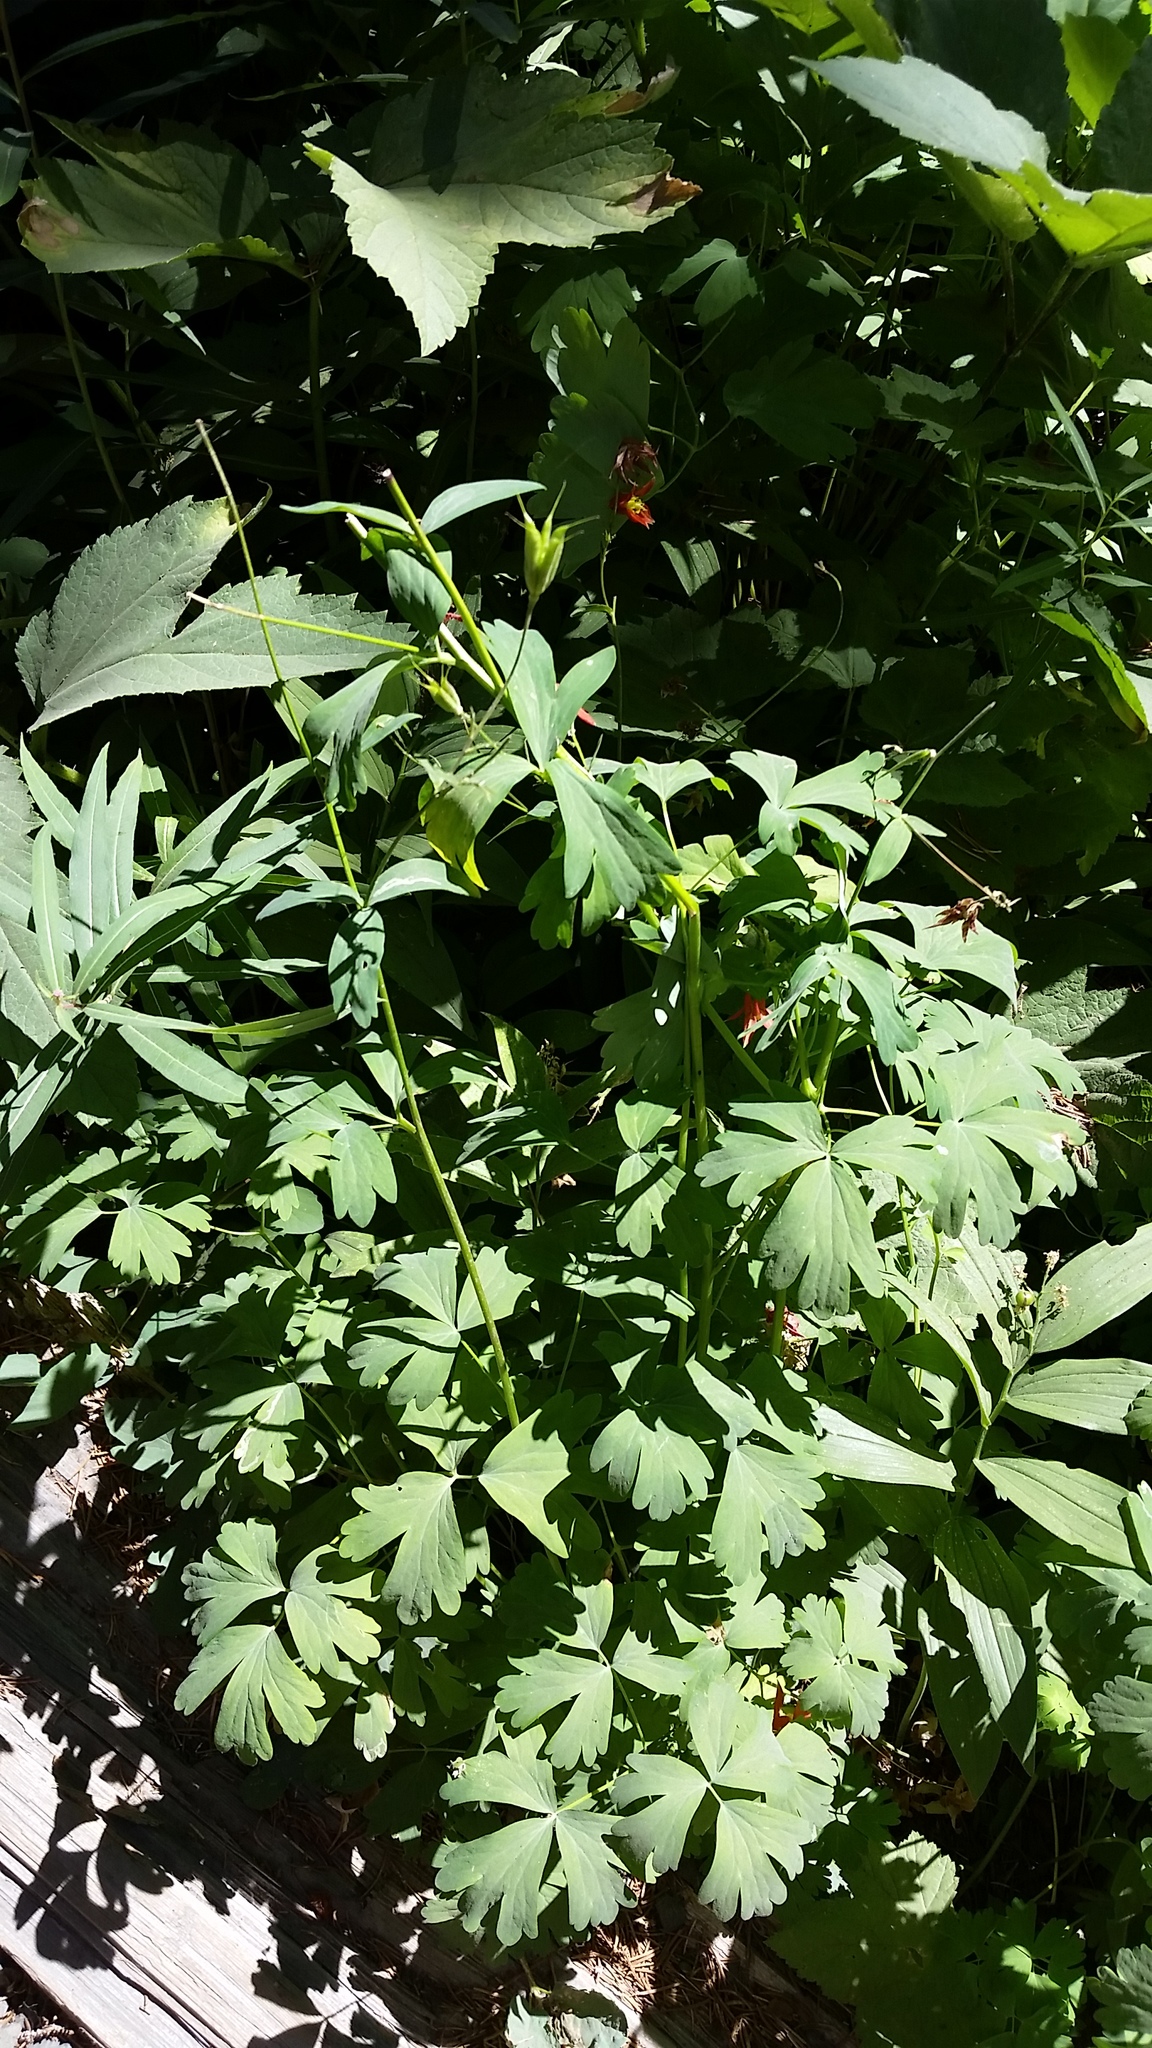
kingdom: Plantae
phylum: Tracheophyta
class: Magnoliopsida
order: Ranunculales
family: Ranunculaceae
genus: Aquilegia
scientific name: Aquilegia formosa
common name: Sitka columbine
